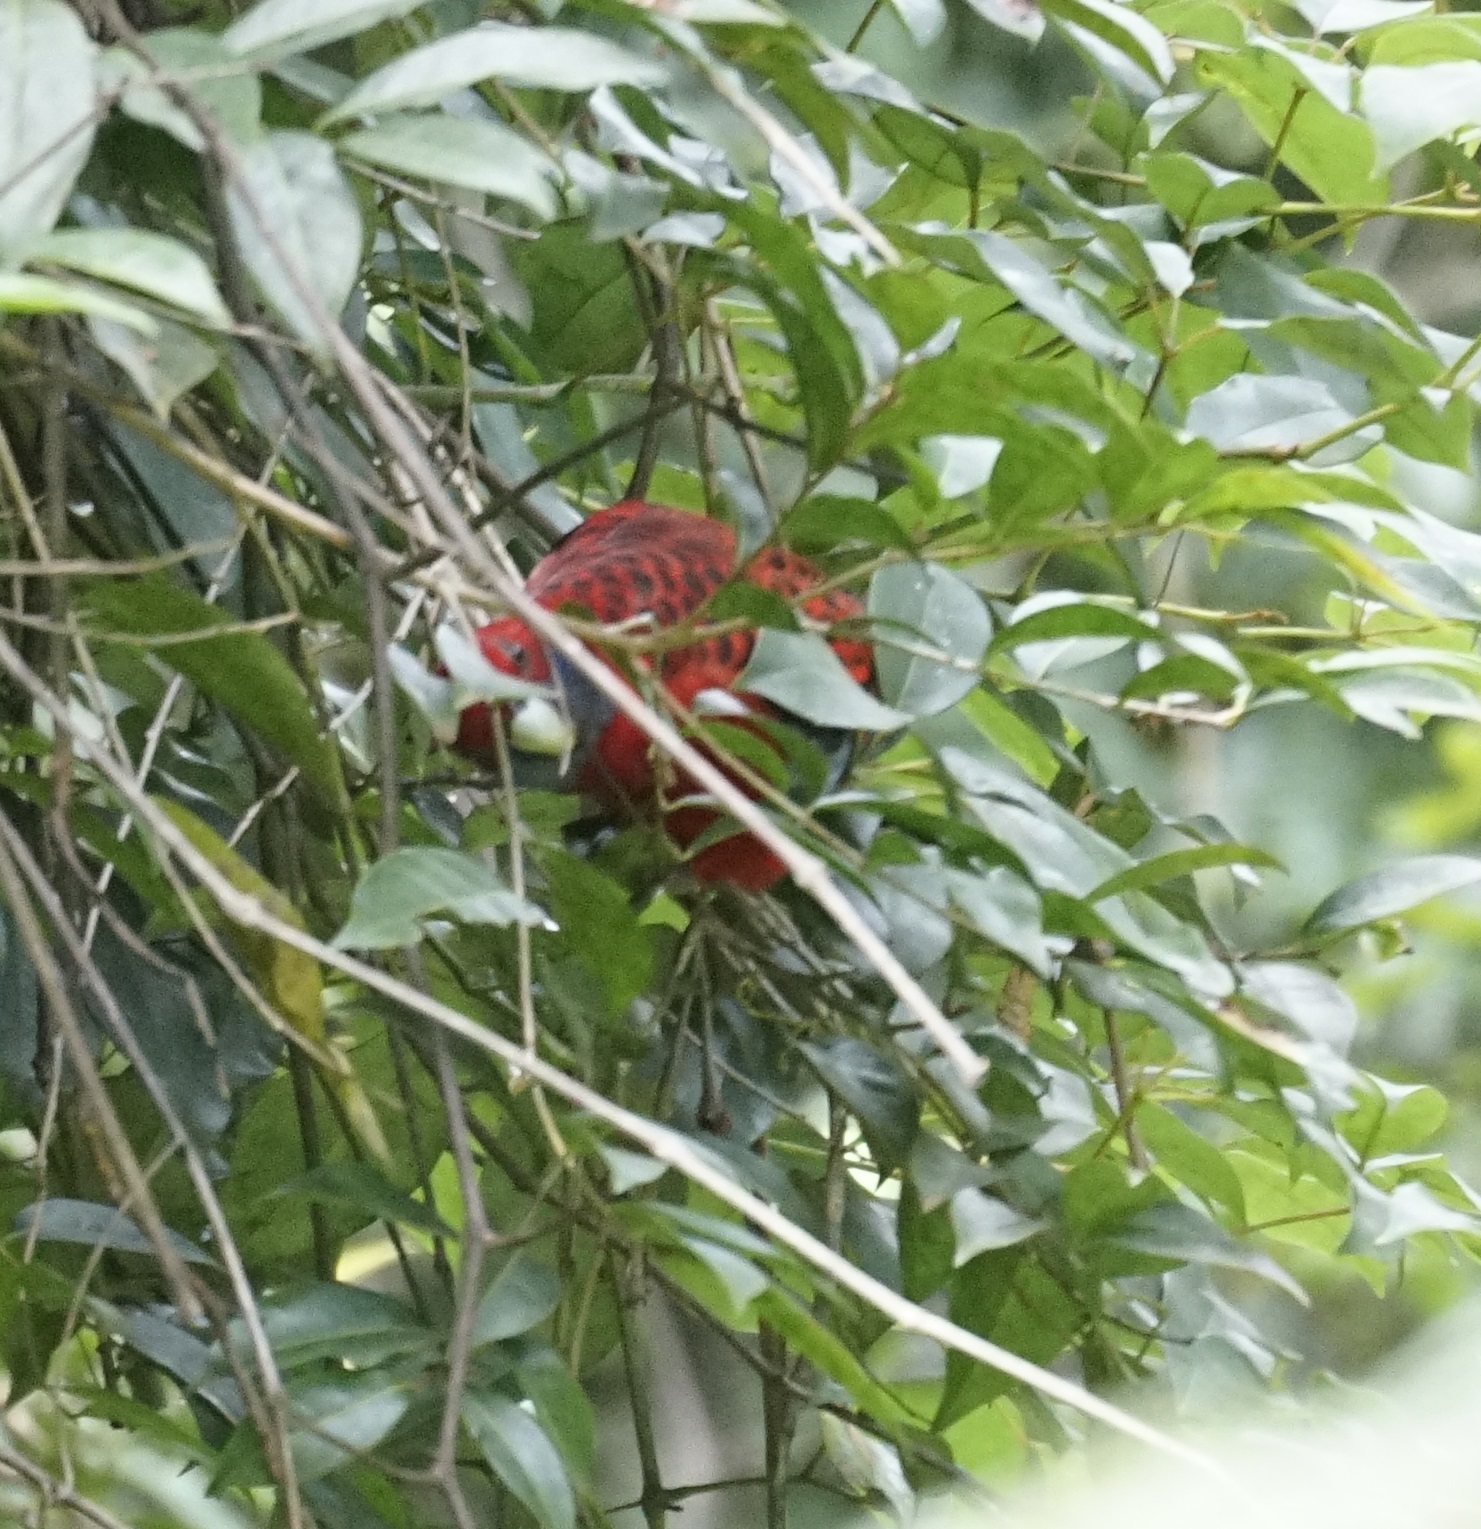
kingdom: Animalia
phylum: Chordata
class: Aves
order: Psittaciformes
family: Psittacidae
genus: Platycercus
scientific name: Platycercus elegans
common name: Crimson rosella
